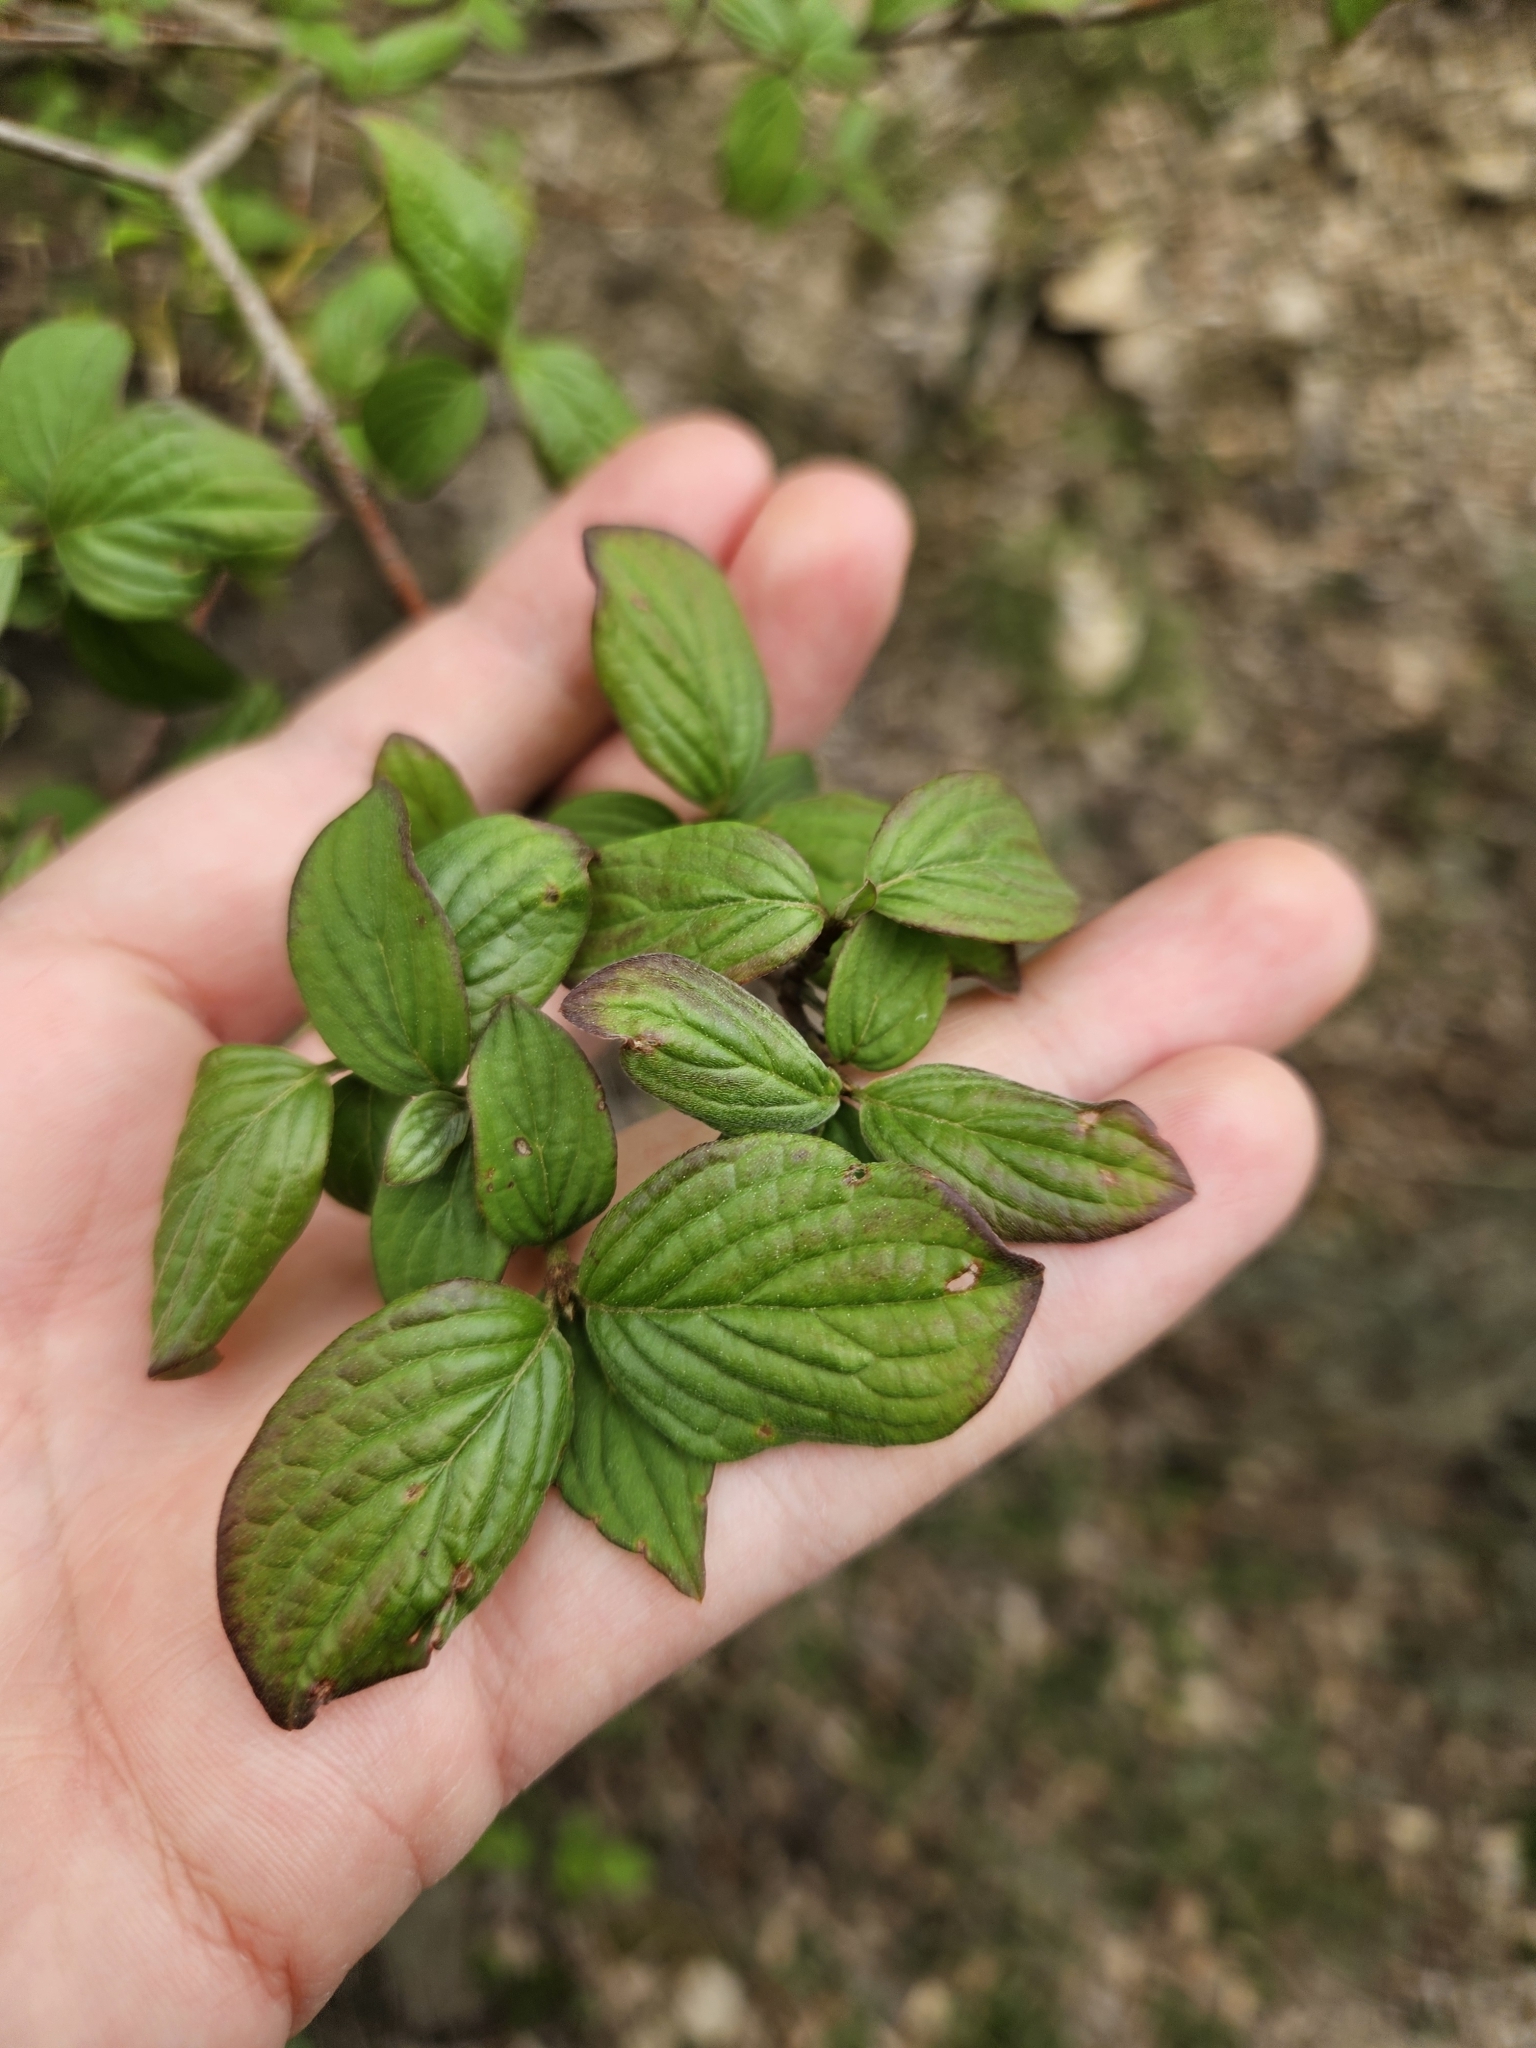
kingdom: Plantae
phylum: Tracheophyta
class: Magnoliopsida
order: Cornales
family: Cornaceae
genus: Cornus
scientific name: Cornus sanguinea
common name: Dogwood
